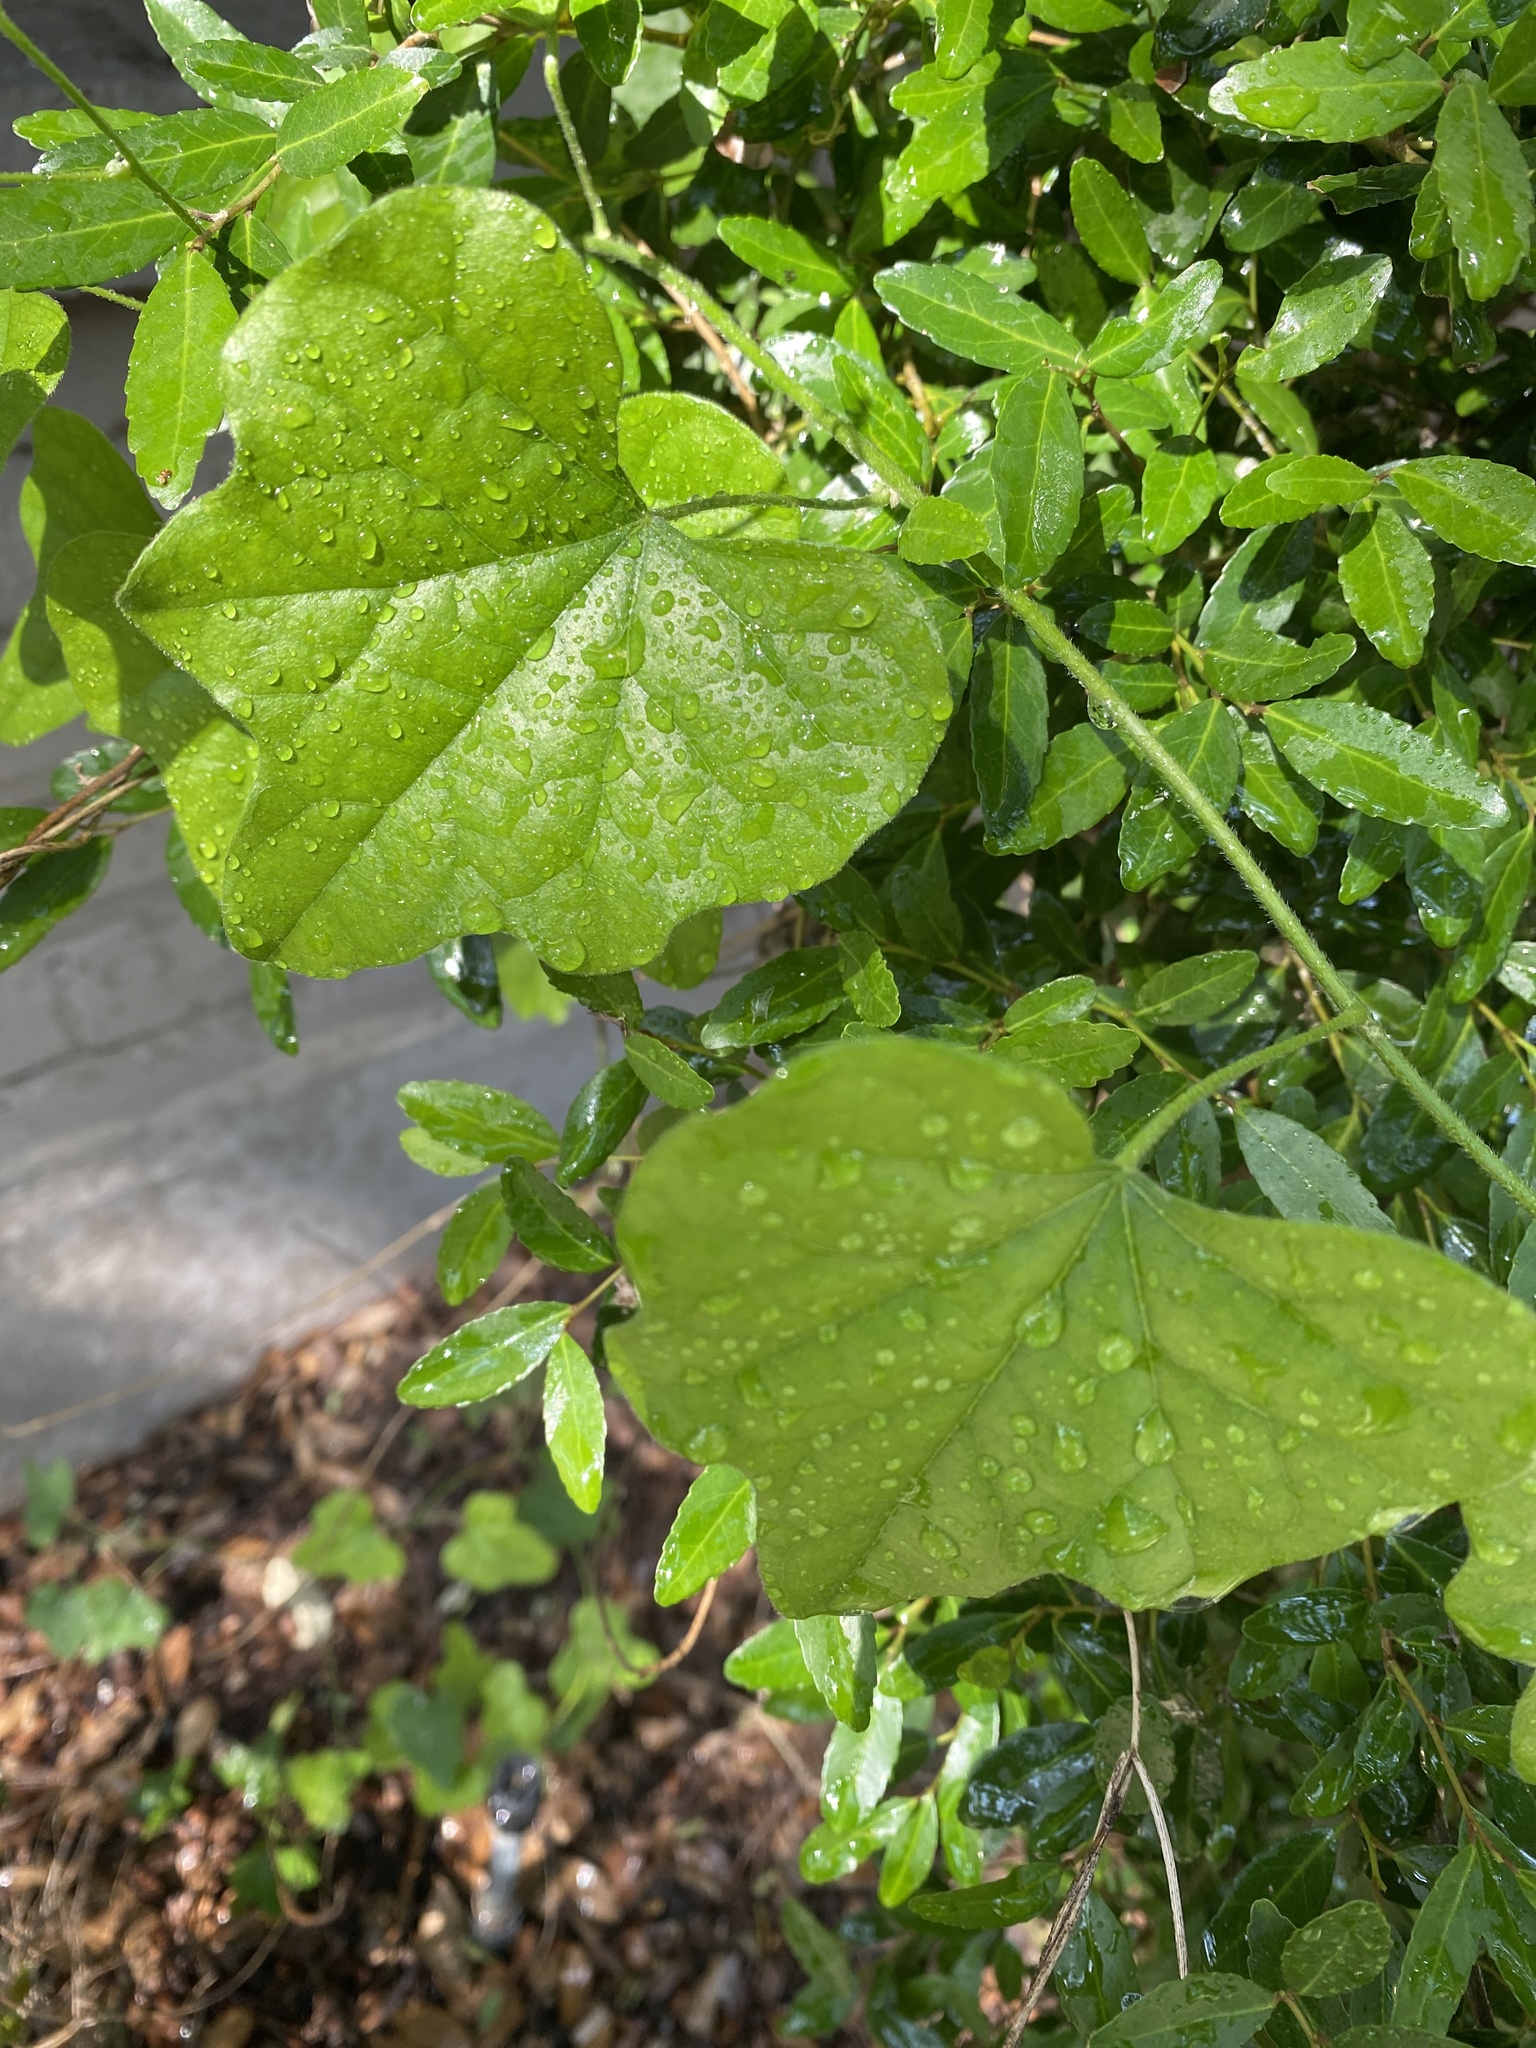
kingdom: Plantae
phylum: Tracheophyta
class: Magnoliopsida
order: Ranunculales
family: Menispermaceae
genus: Cocculus
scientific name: Cocculus carolinus
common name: Carolina moonseed
